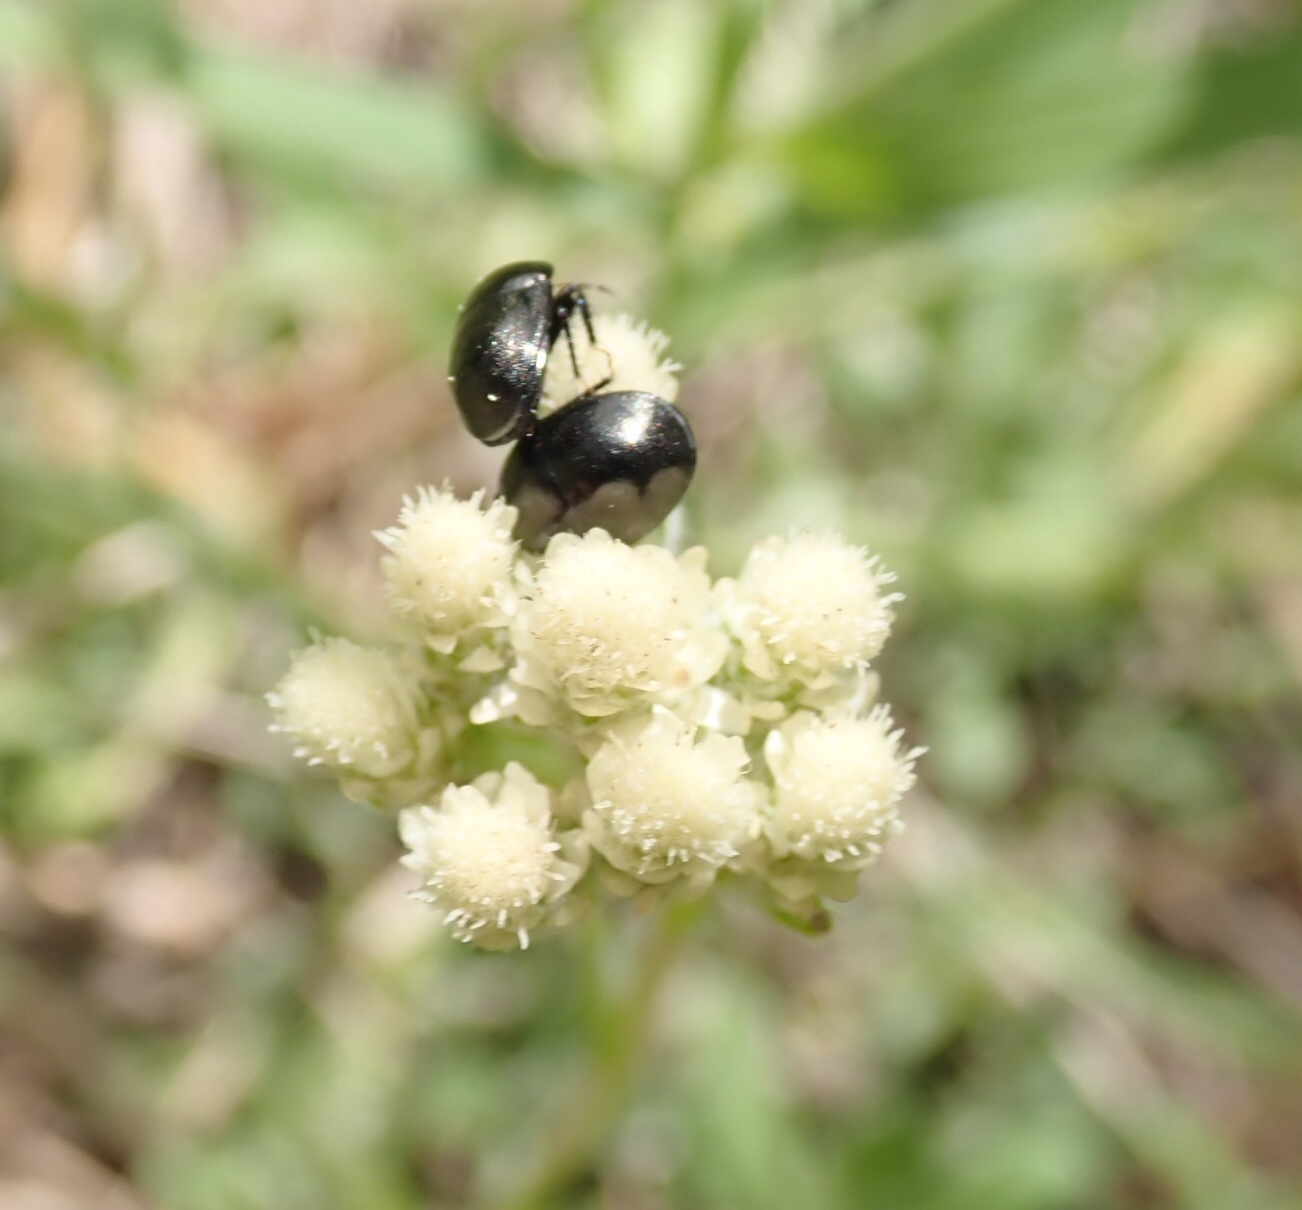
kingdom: Plantae
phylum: Tracheophyta
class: Magnoliopsida
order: Asterales
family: Asteraceae
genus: Antennaria
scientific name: Antennaria neglecta
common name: Field pussytoes
